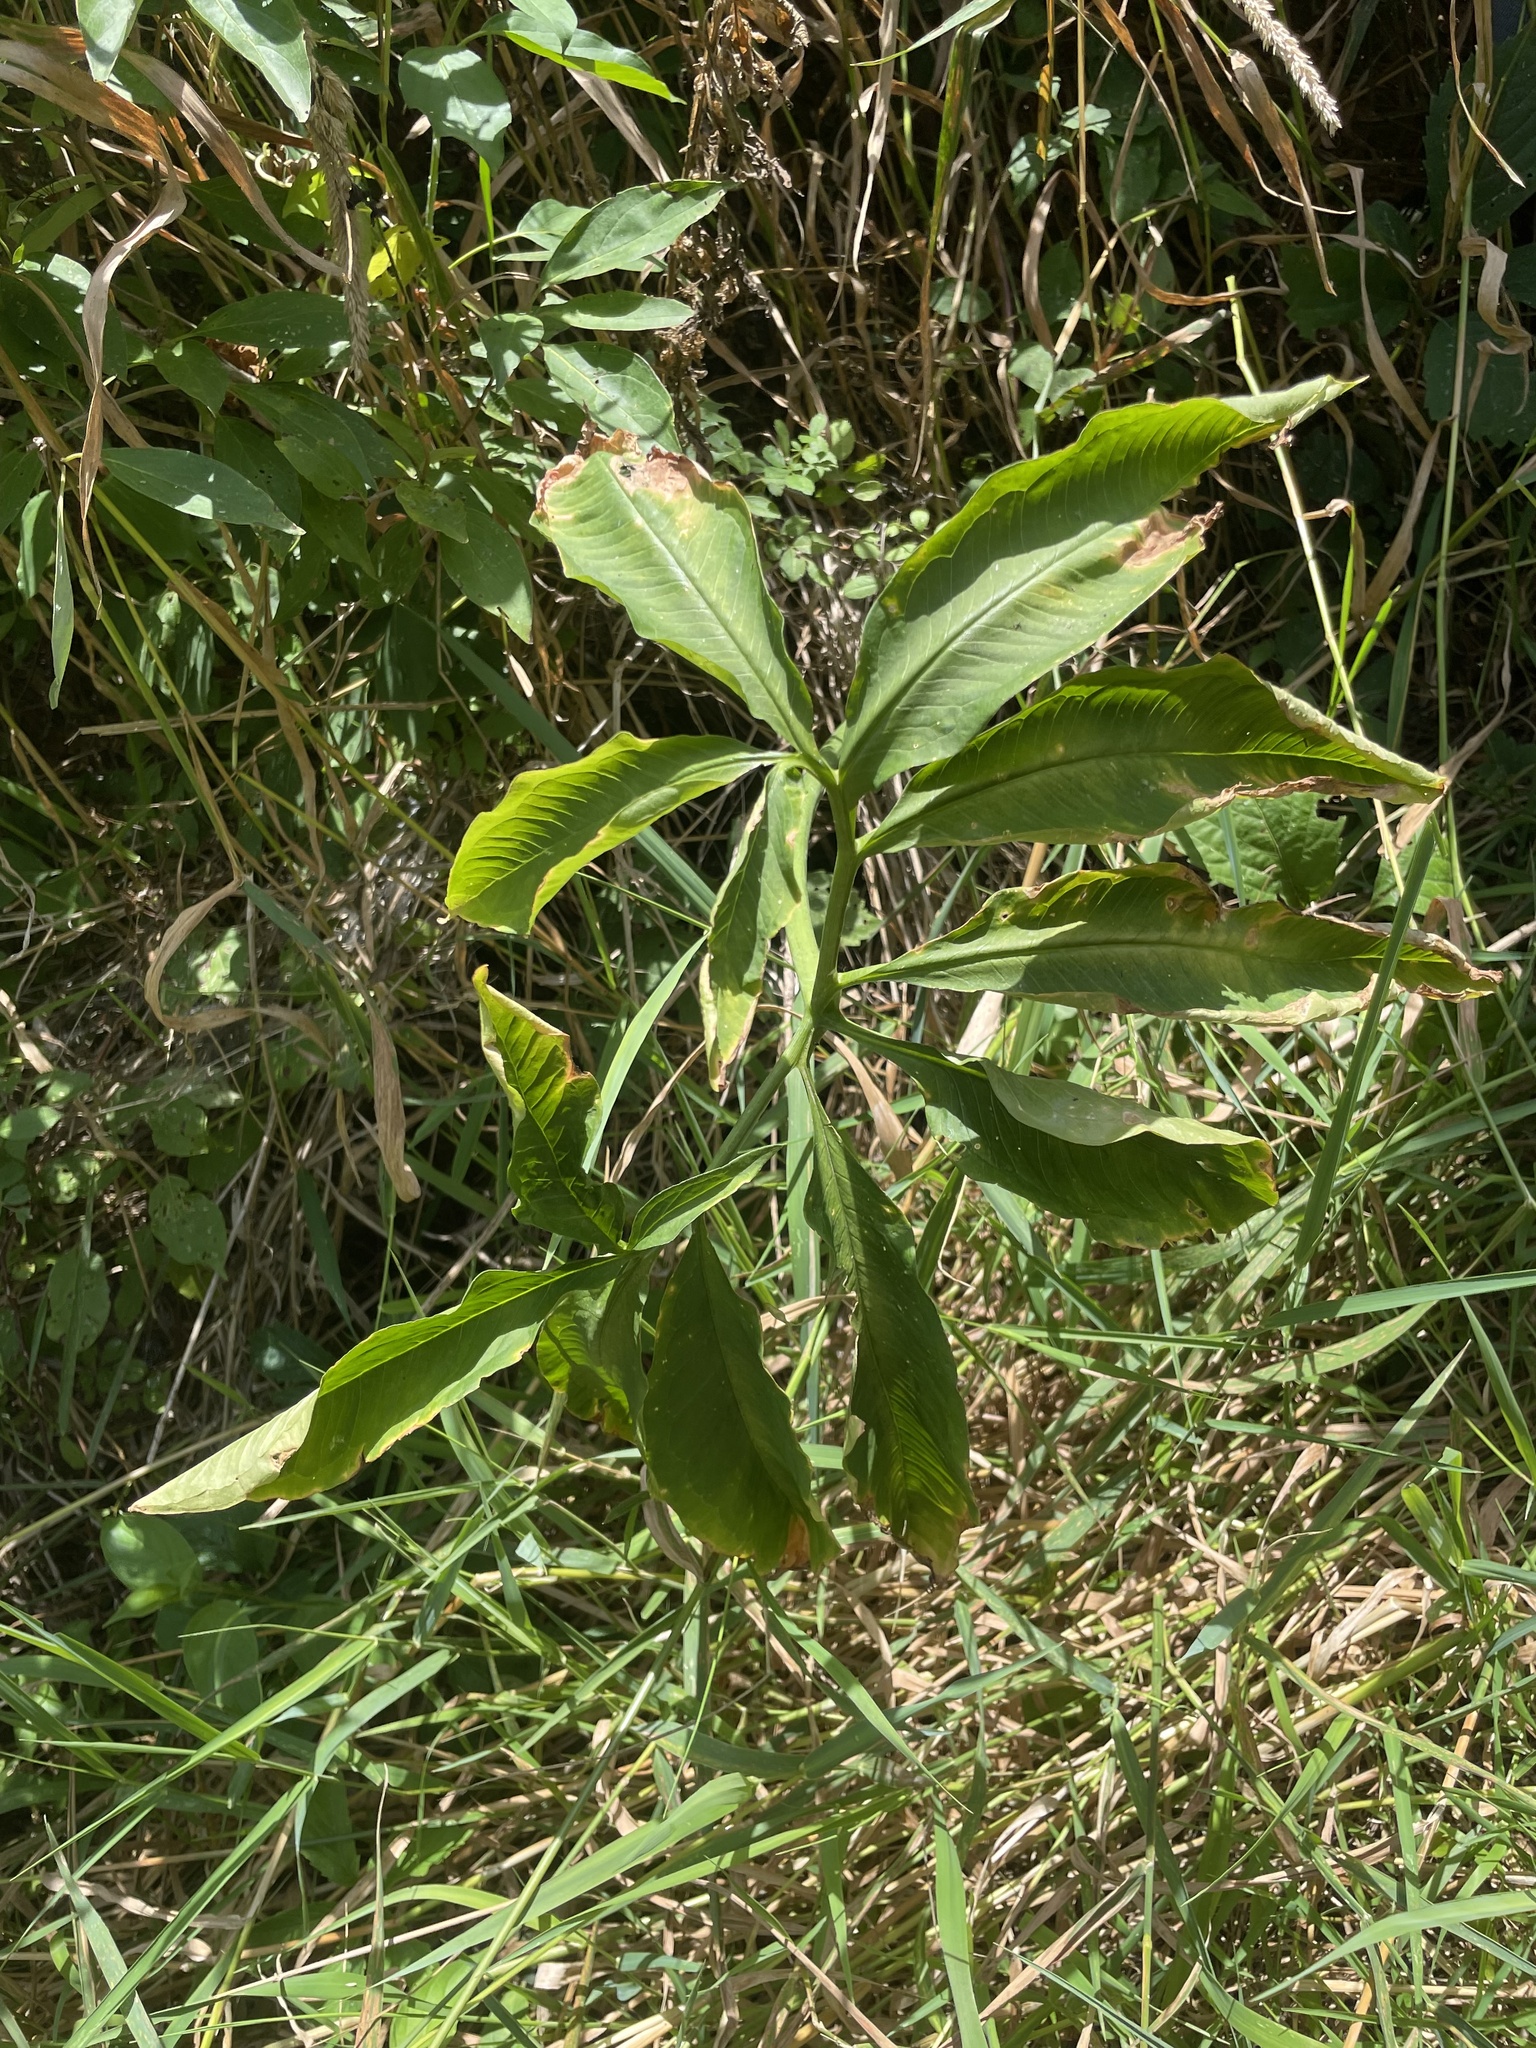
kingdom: Plantae
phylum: Tracheophyta
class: Liliopsida
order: Alismatales
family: Araceae
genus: Arisaema
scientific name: Arisaema dracontium
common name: Dragon-arum
